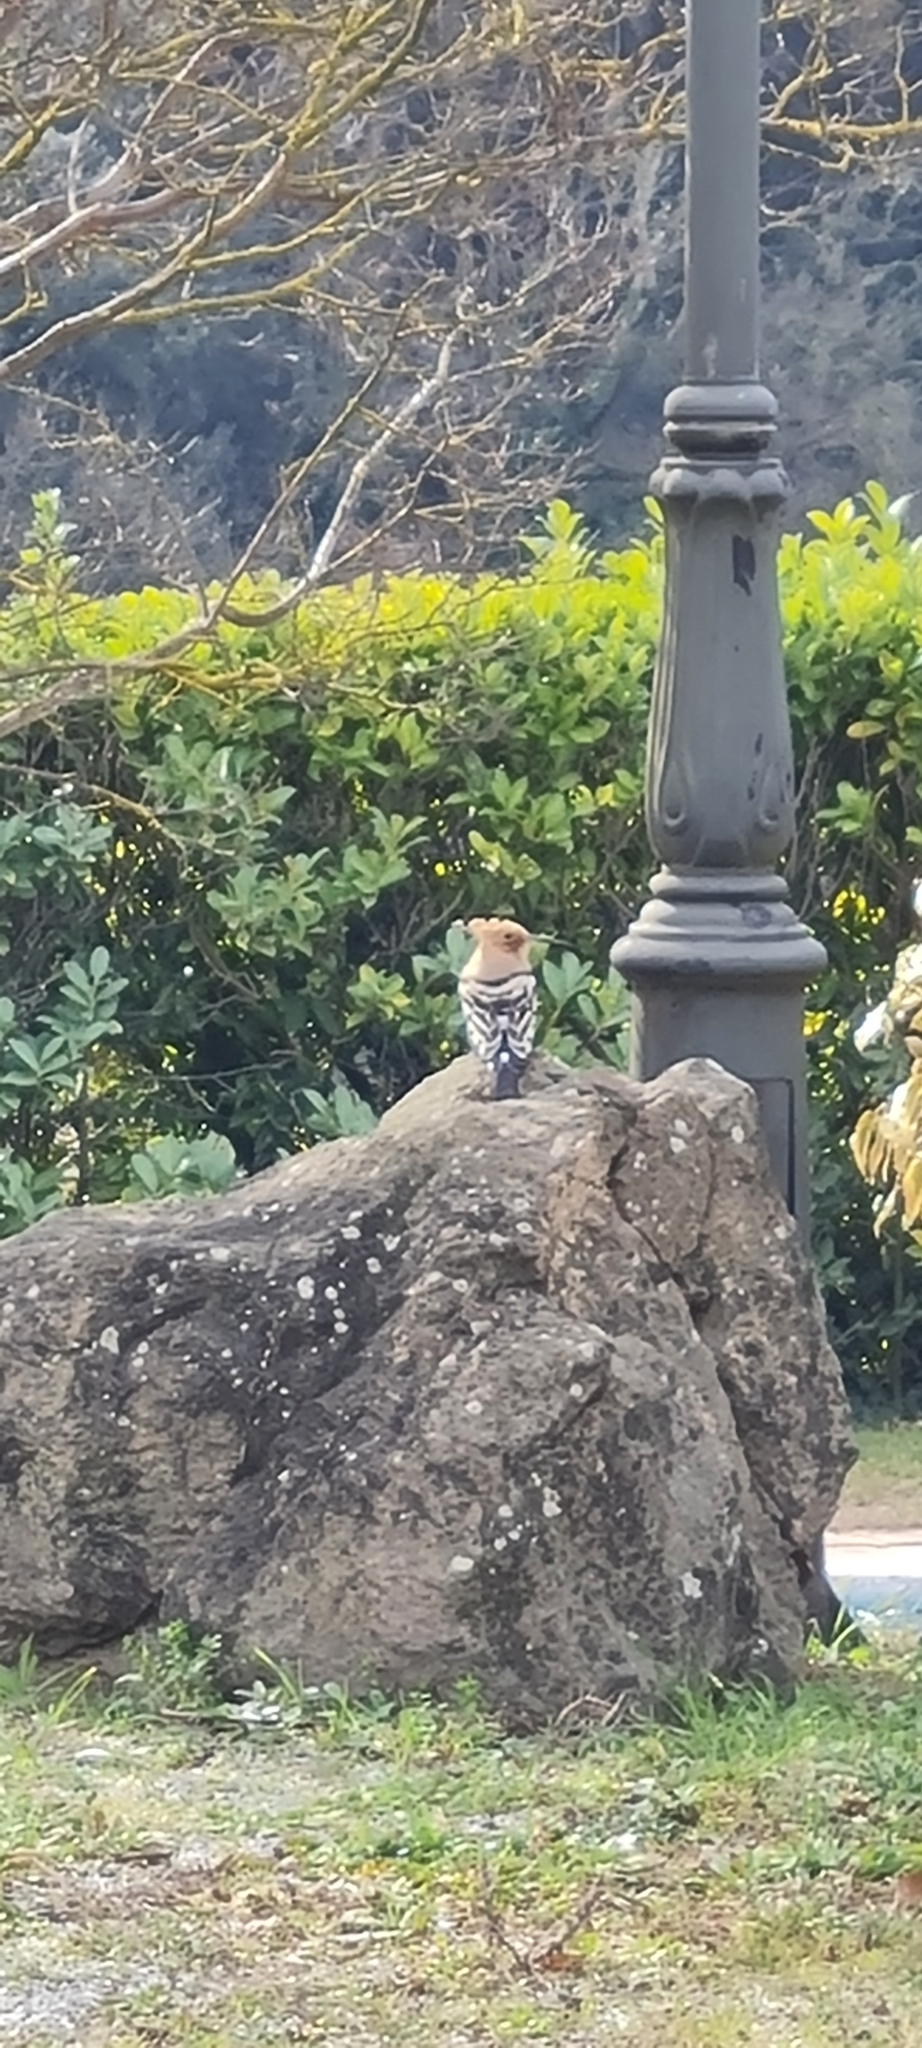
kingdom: Animalia
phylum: Chordata
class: Aves
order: Bucerotiformes
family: Upupidae
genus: Upupa
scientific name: Upupa epops
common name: Eurasian hoopoe
